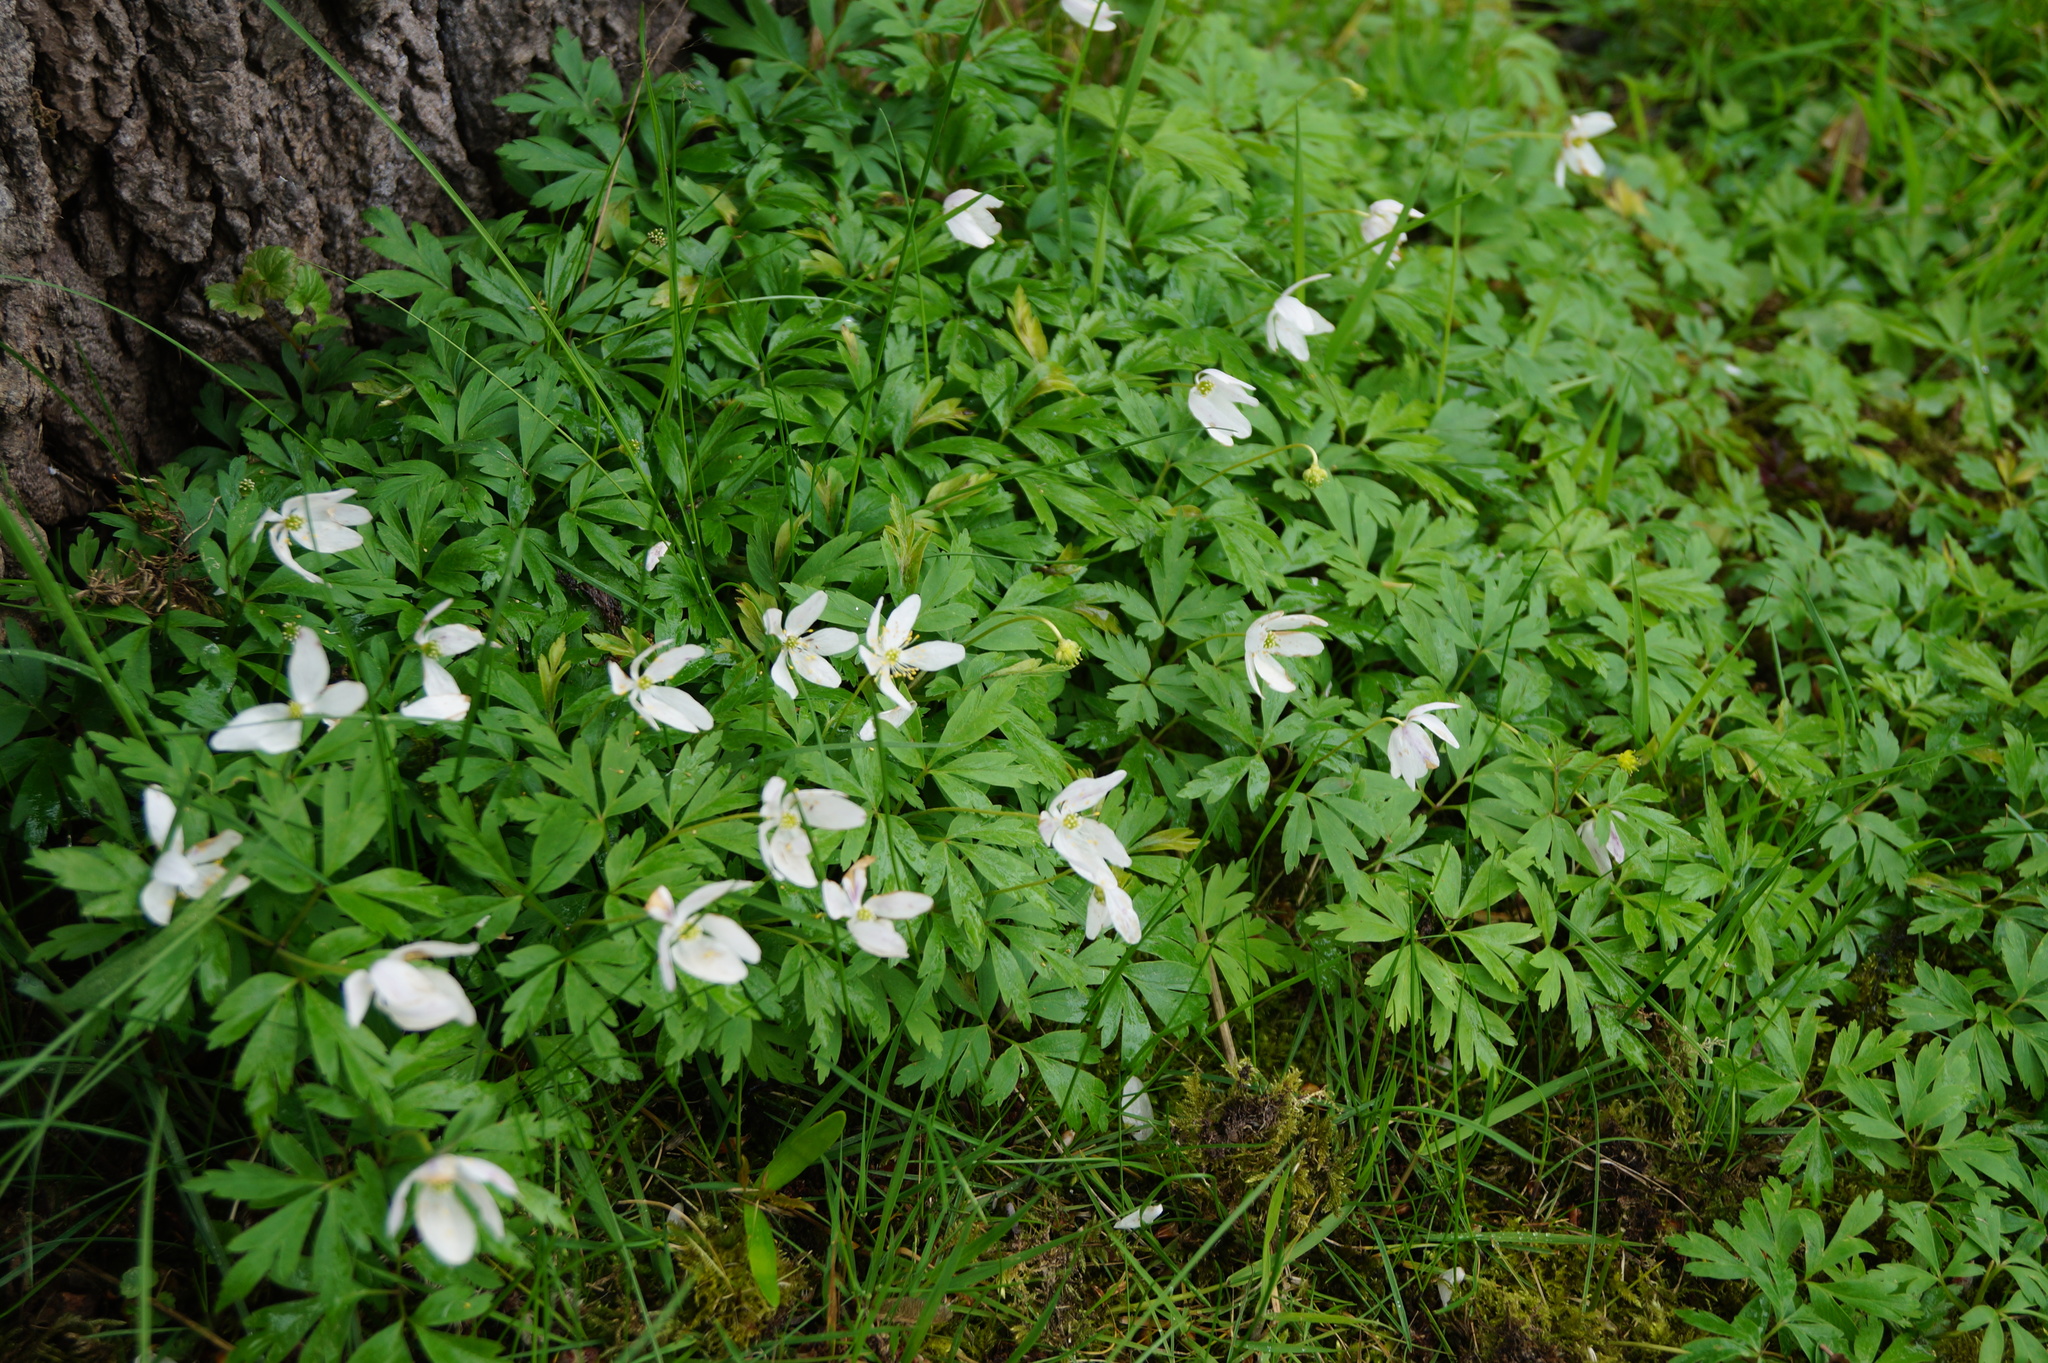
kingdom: Plantae
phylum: Tracheophyta
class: Magnoliopsida
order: Ranunculales
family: Ranunculaceae
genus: Anemone
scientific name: Anemone nemorosa
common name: Wood anemone
